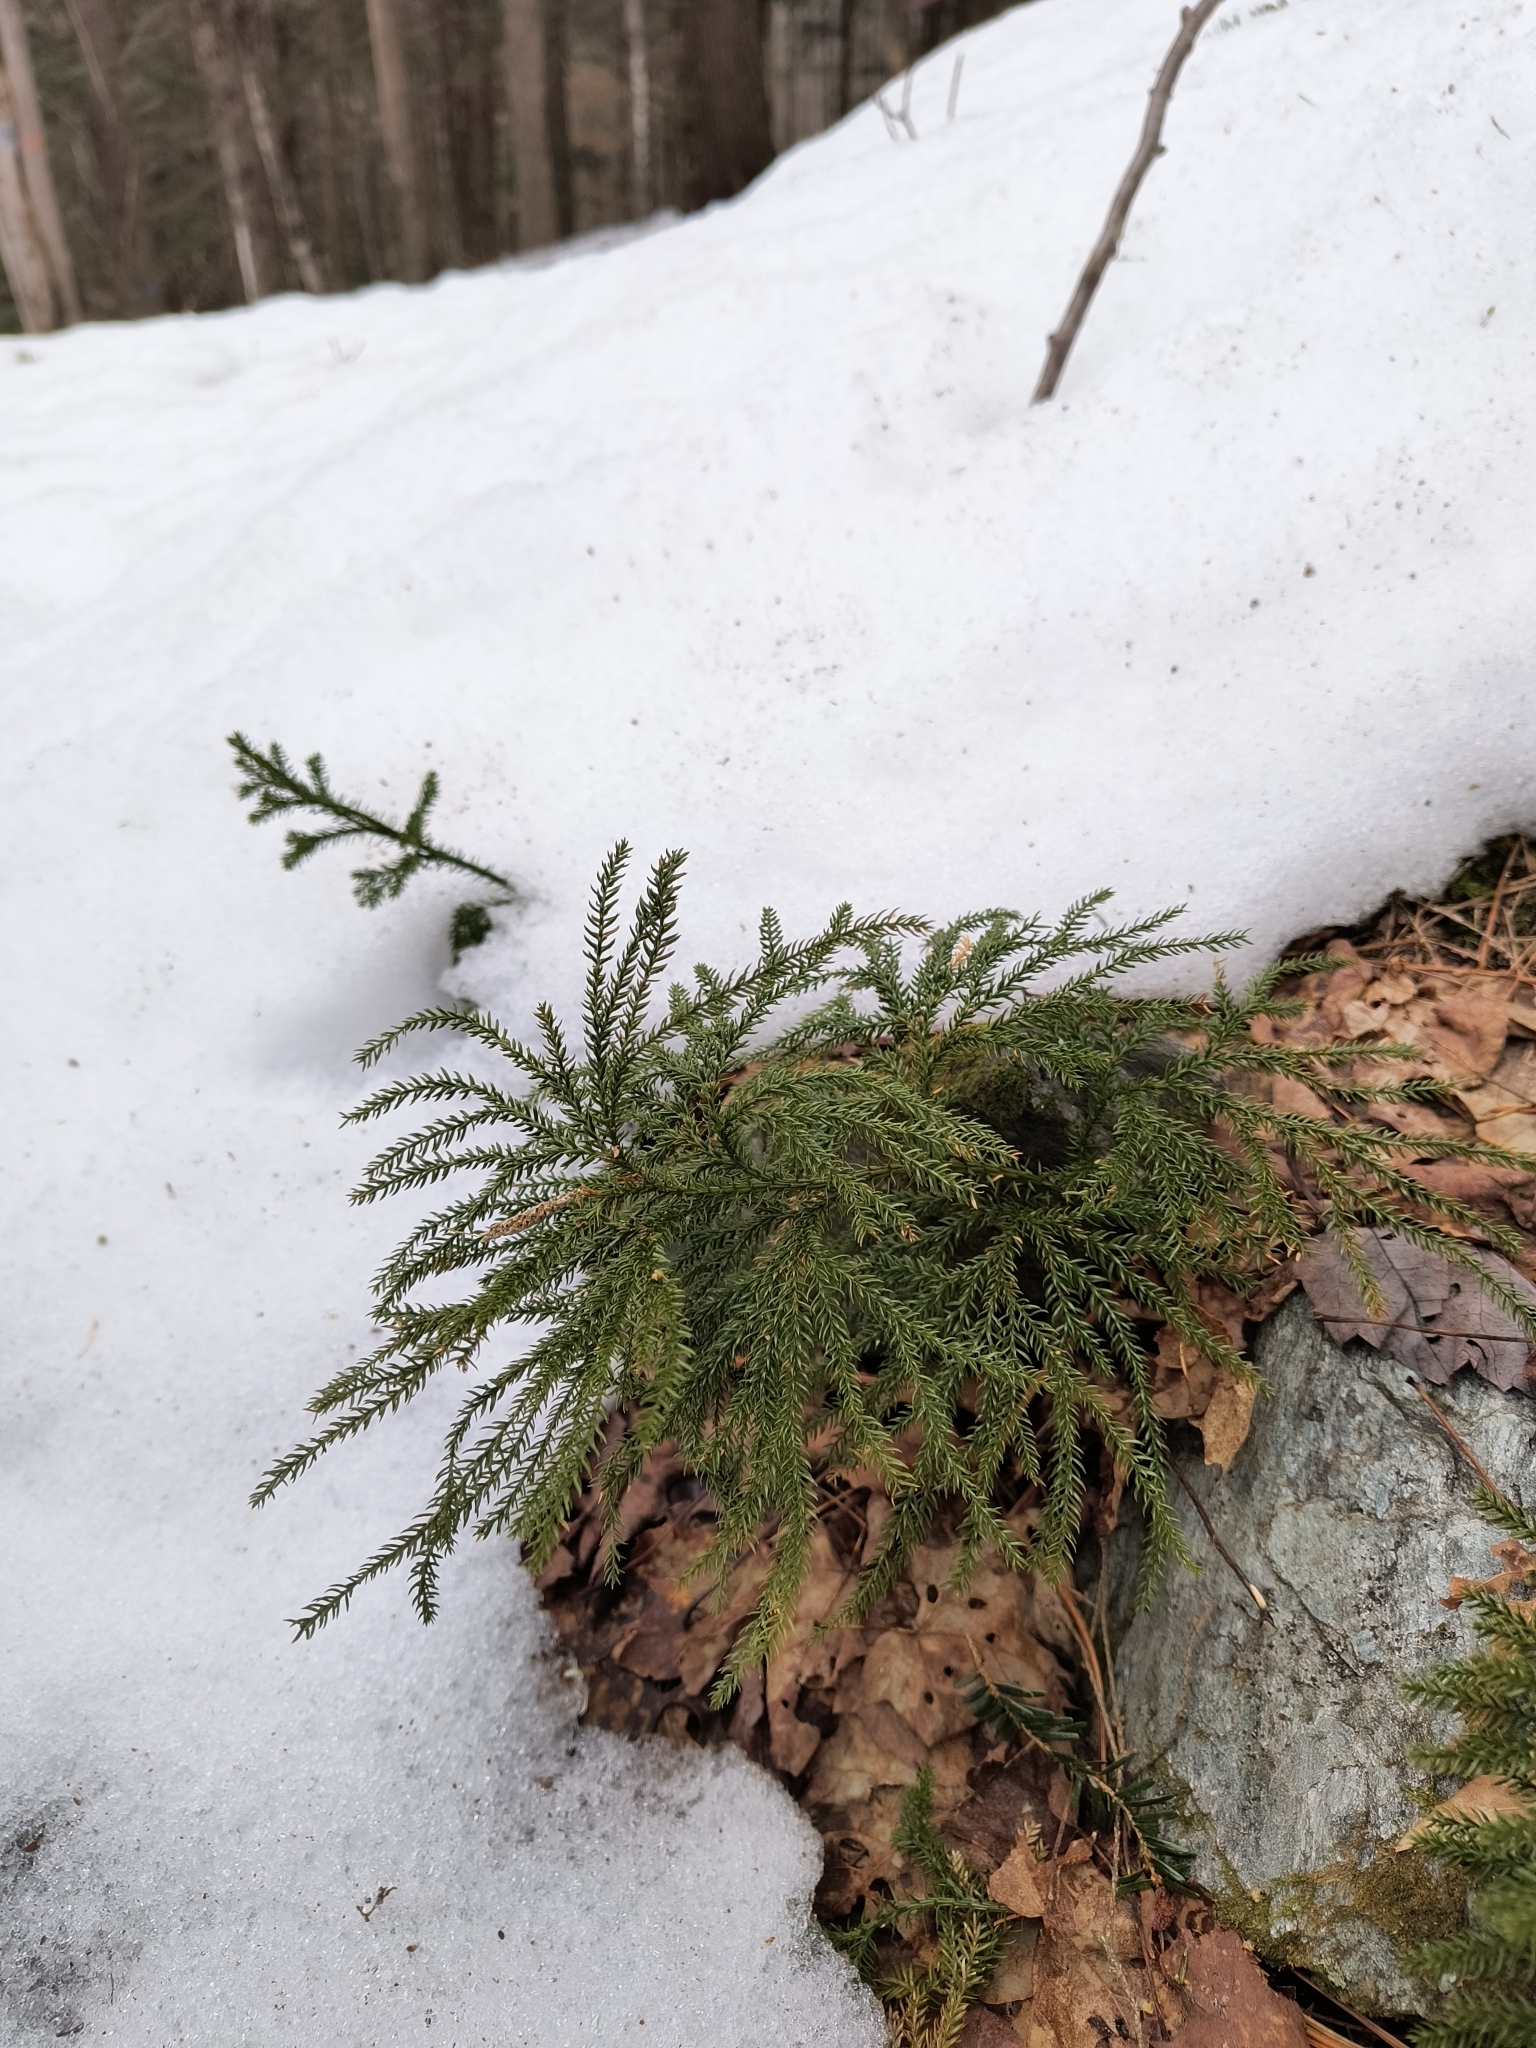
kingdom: Plantae
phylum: Tracheophyta
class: Lycopodiopsida
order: Lycopodiales
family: Lycopodiaceae
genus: Dendrolycopodium
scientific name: Dendrolycopodium dendroideum
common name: Northern tree-clubmoss
